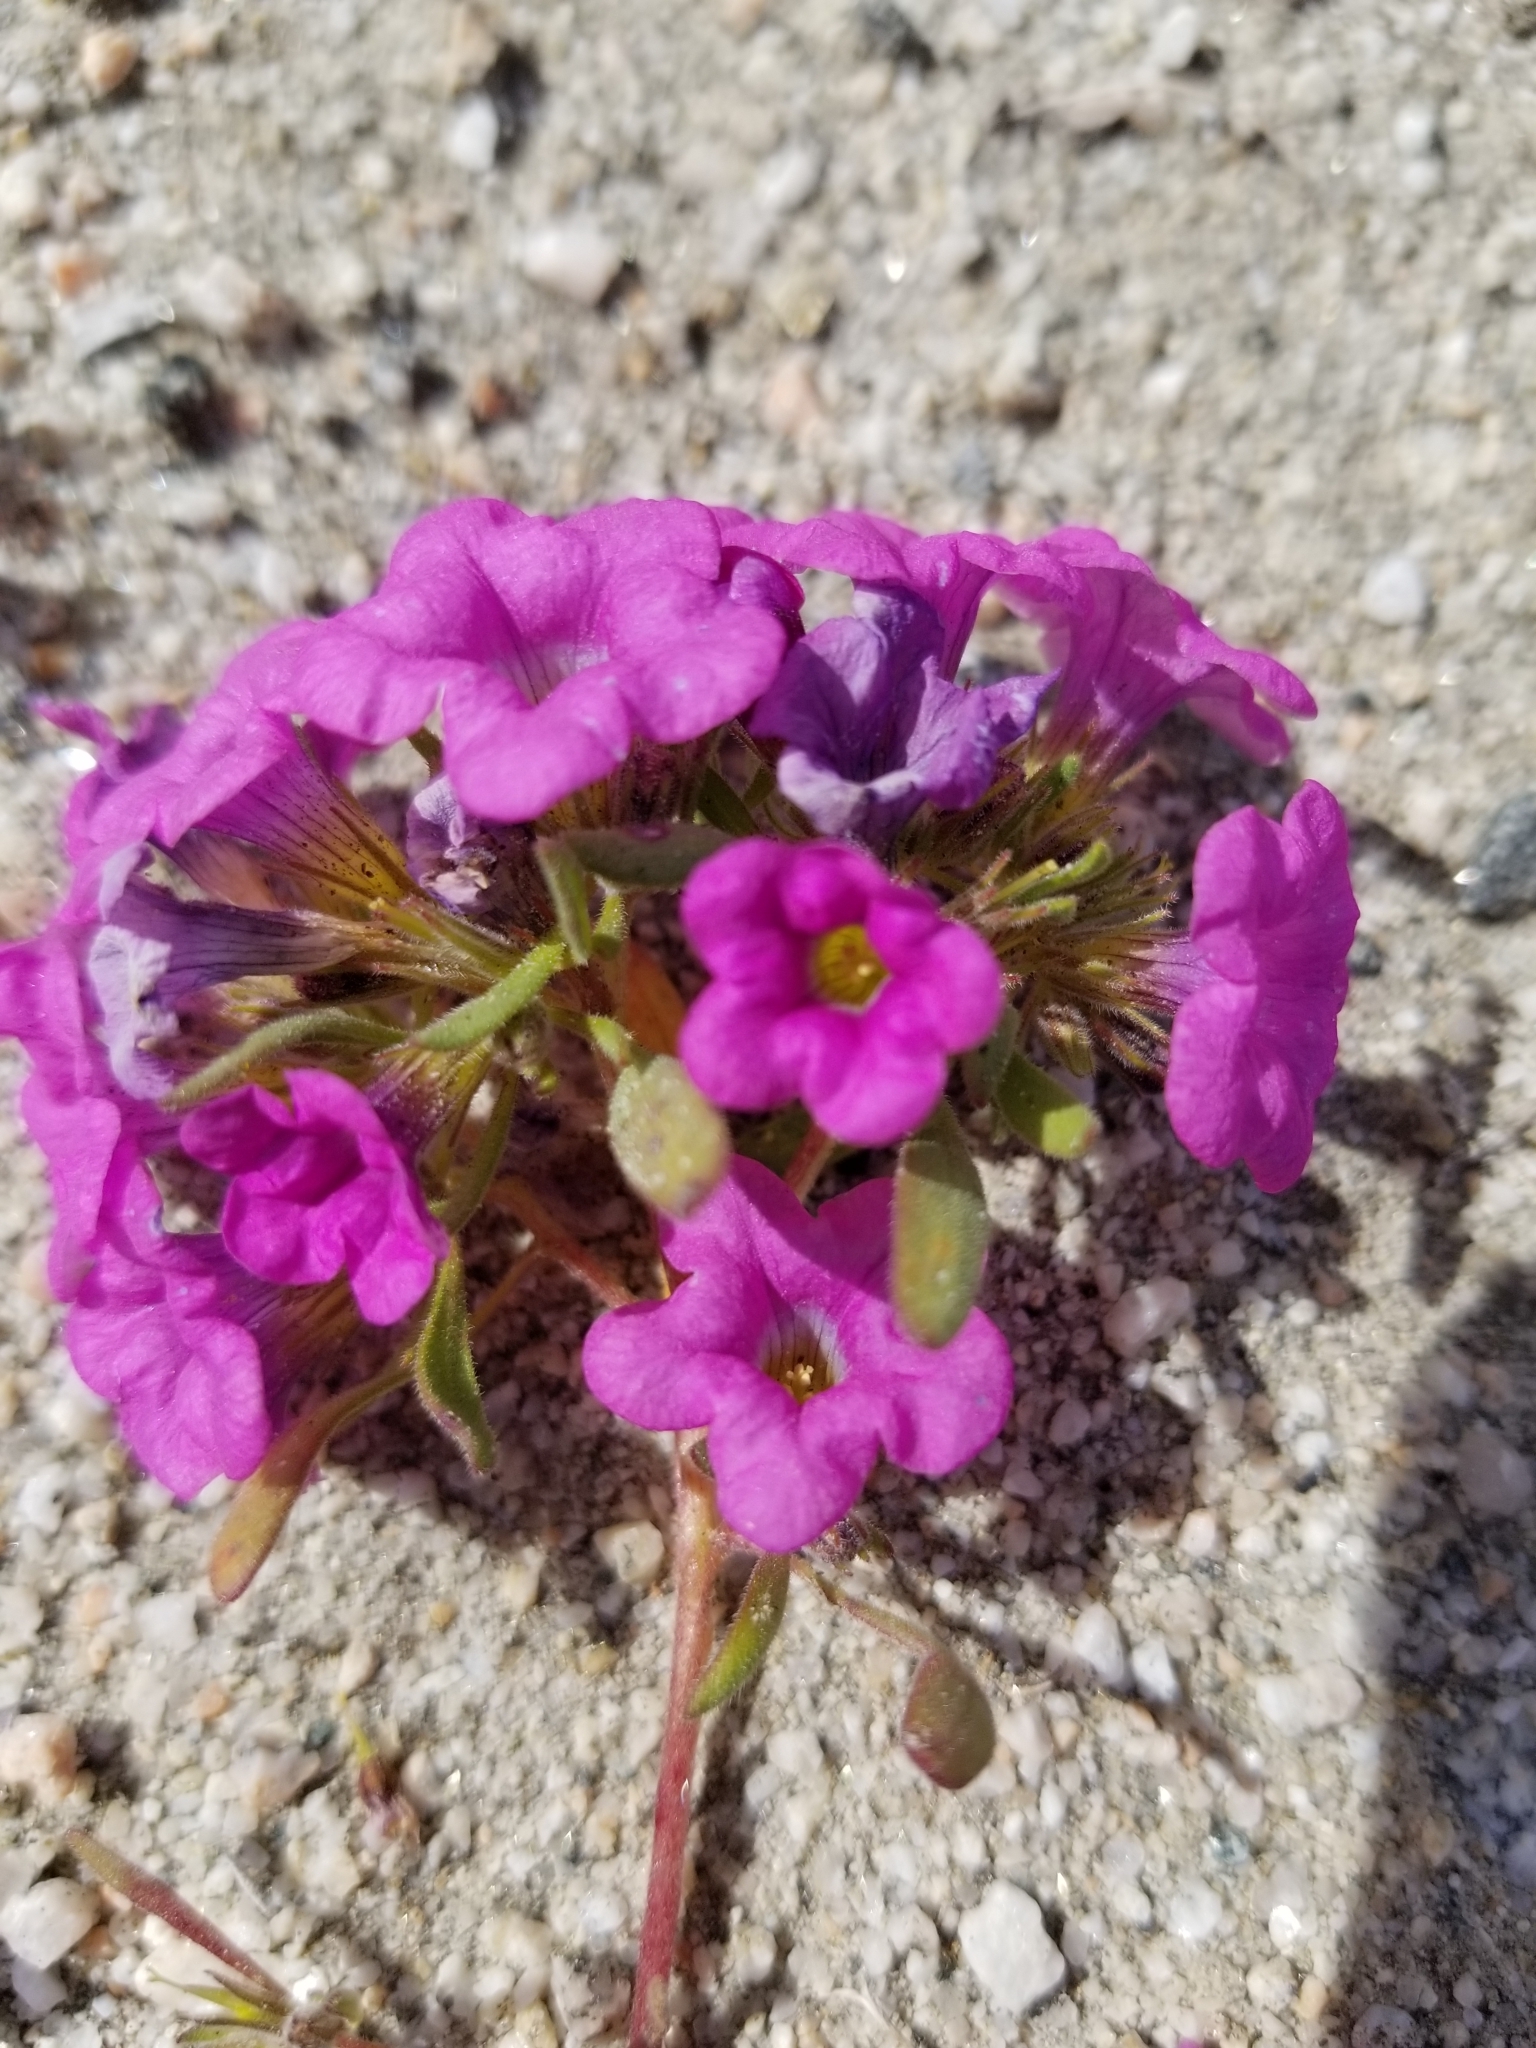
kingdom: Plantae
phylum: Tracheophyta
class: Magnoliopsida
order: Boraginales
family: Namaceae
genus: Nama
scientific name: Nama demissa
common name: Leafy nama
